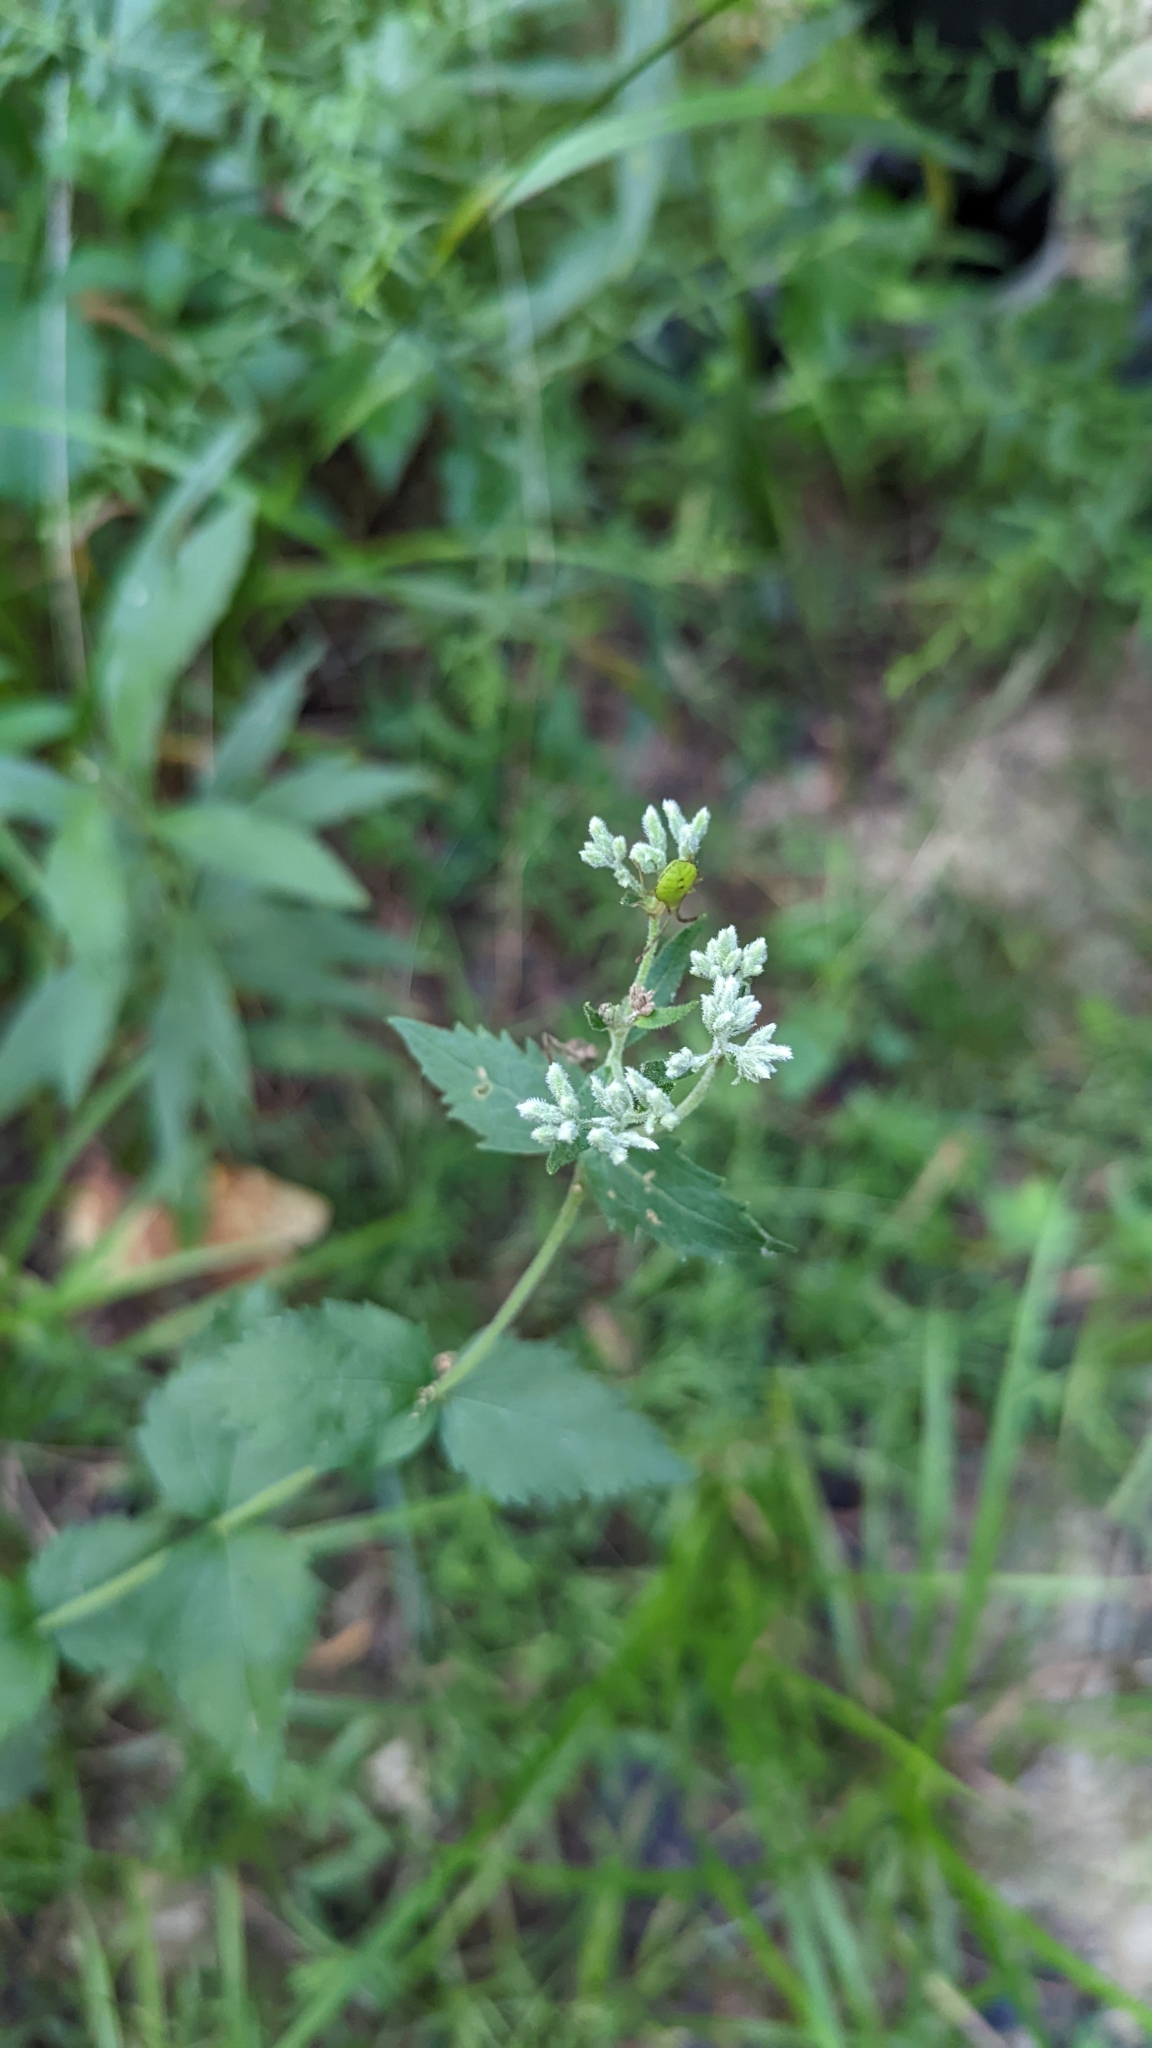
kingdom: Plantae
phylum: Tracheophyta
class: Magnoliopsida
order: Asterales
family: Asteraceae
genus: Eupatorium
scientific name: Eupatorium rotundifolium
